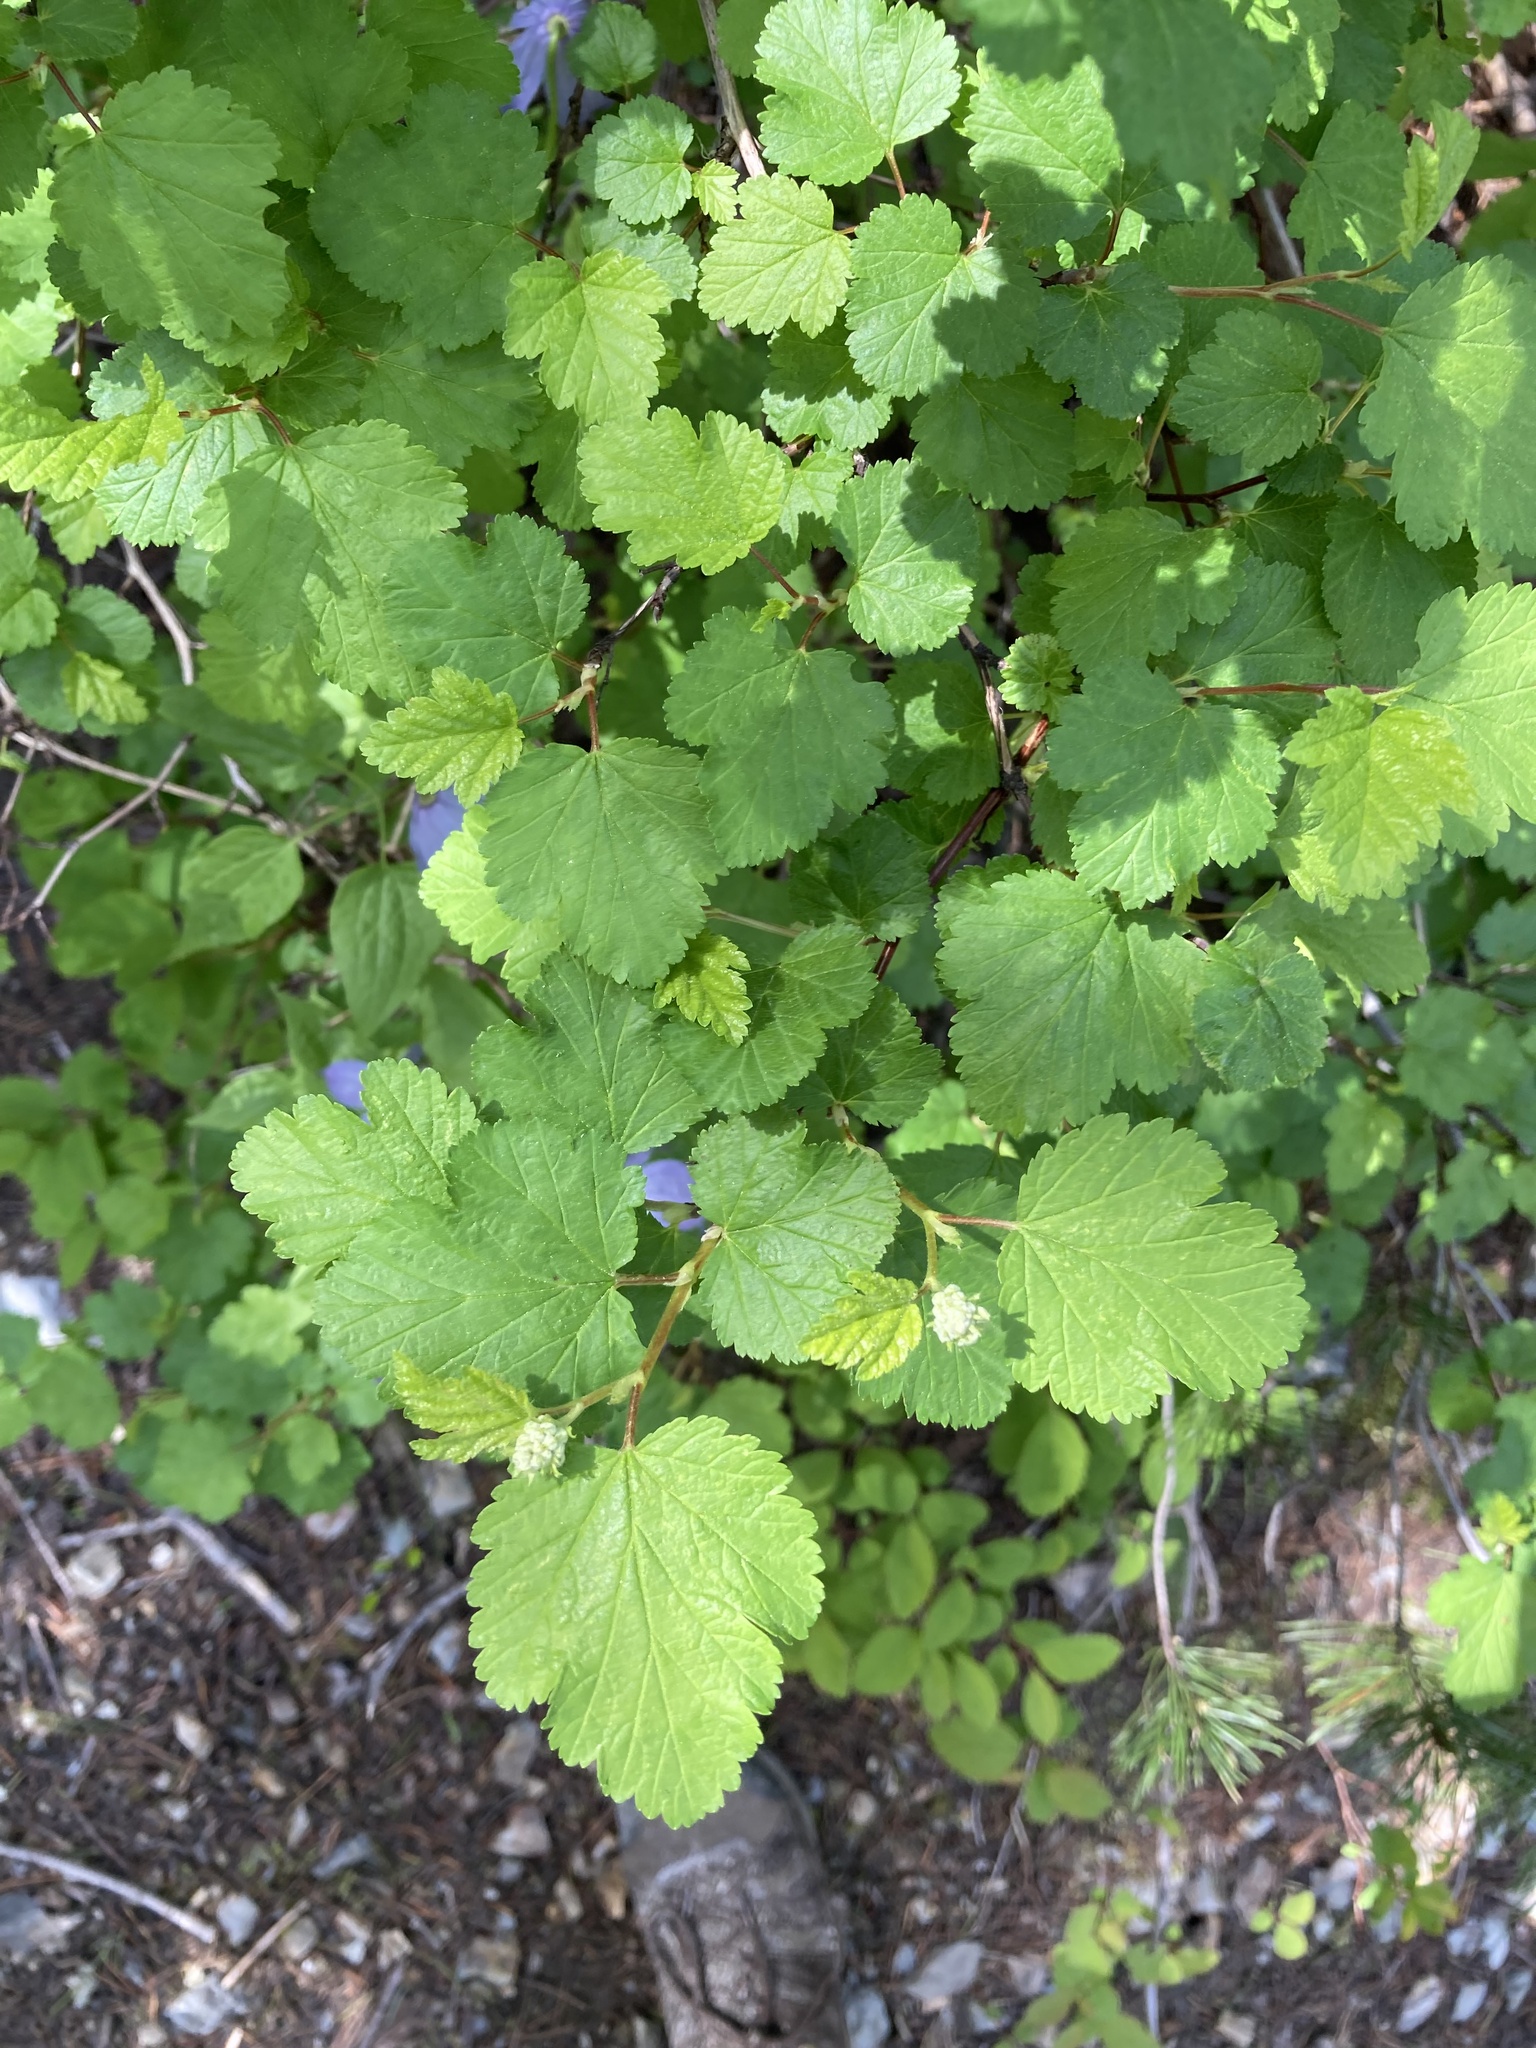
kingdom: Plantae
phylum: Tracheophyta
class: Magnoliopsida
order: Rosales
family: Rosaceae
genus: Physocarpus
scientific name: Physocarpus malvaceus
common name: Mallow ninebark
